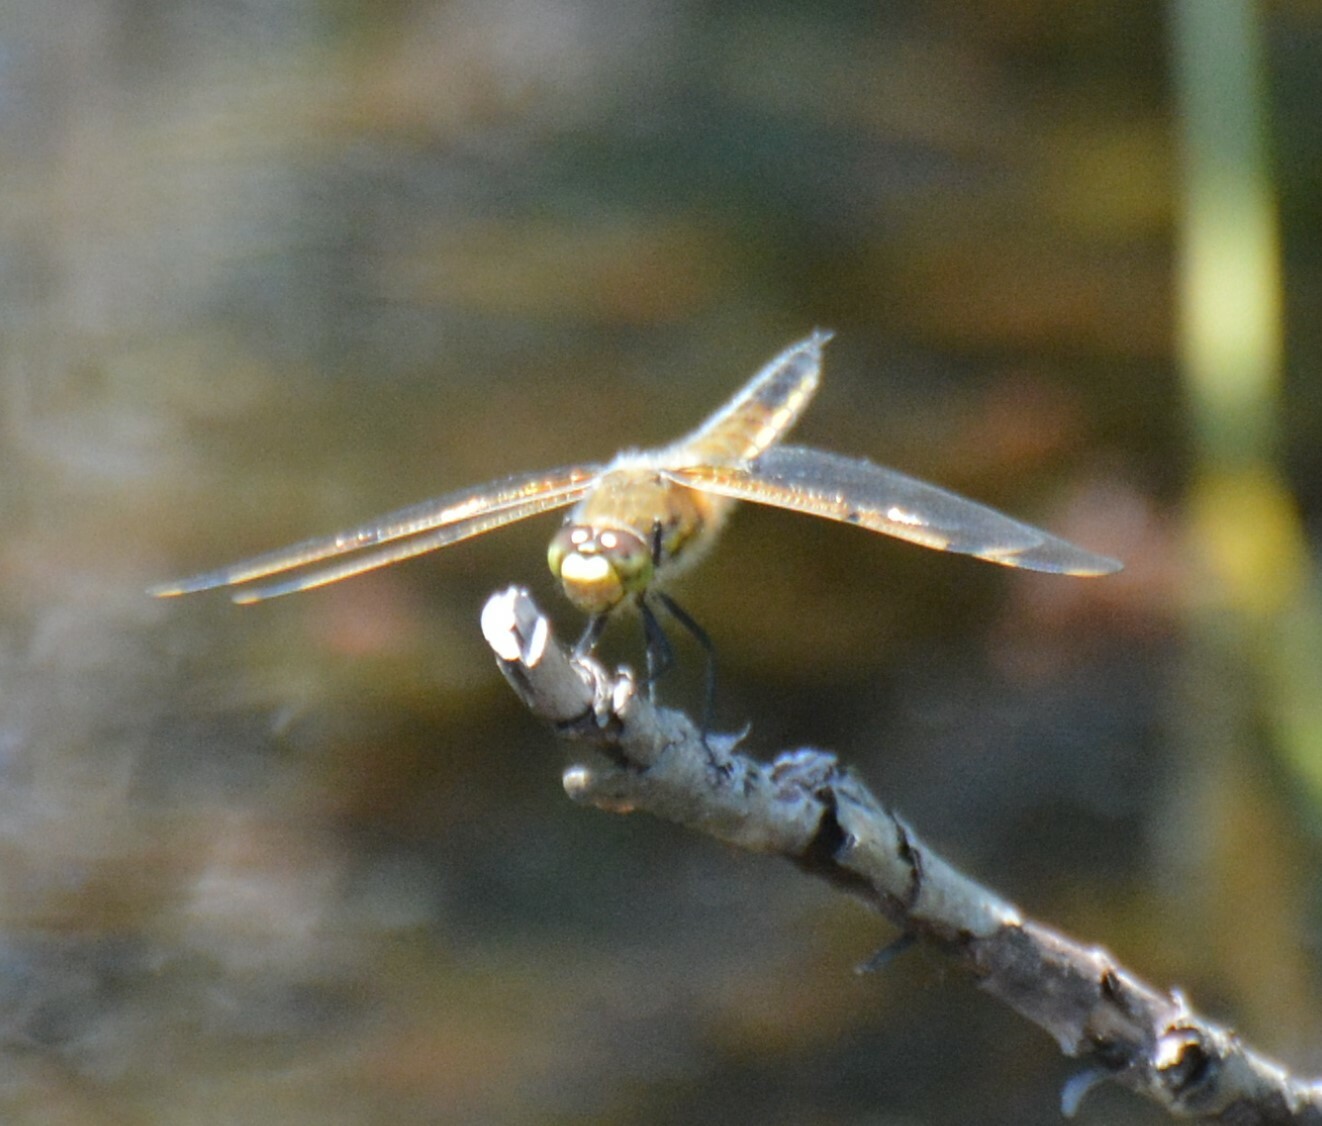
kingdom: Animalia
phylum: Arthropoda
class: Insecta
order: Odonata
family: Libellulidae
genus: Libellula
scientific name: Libellula quadrimaculata
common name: Four-spotted chaser
